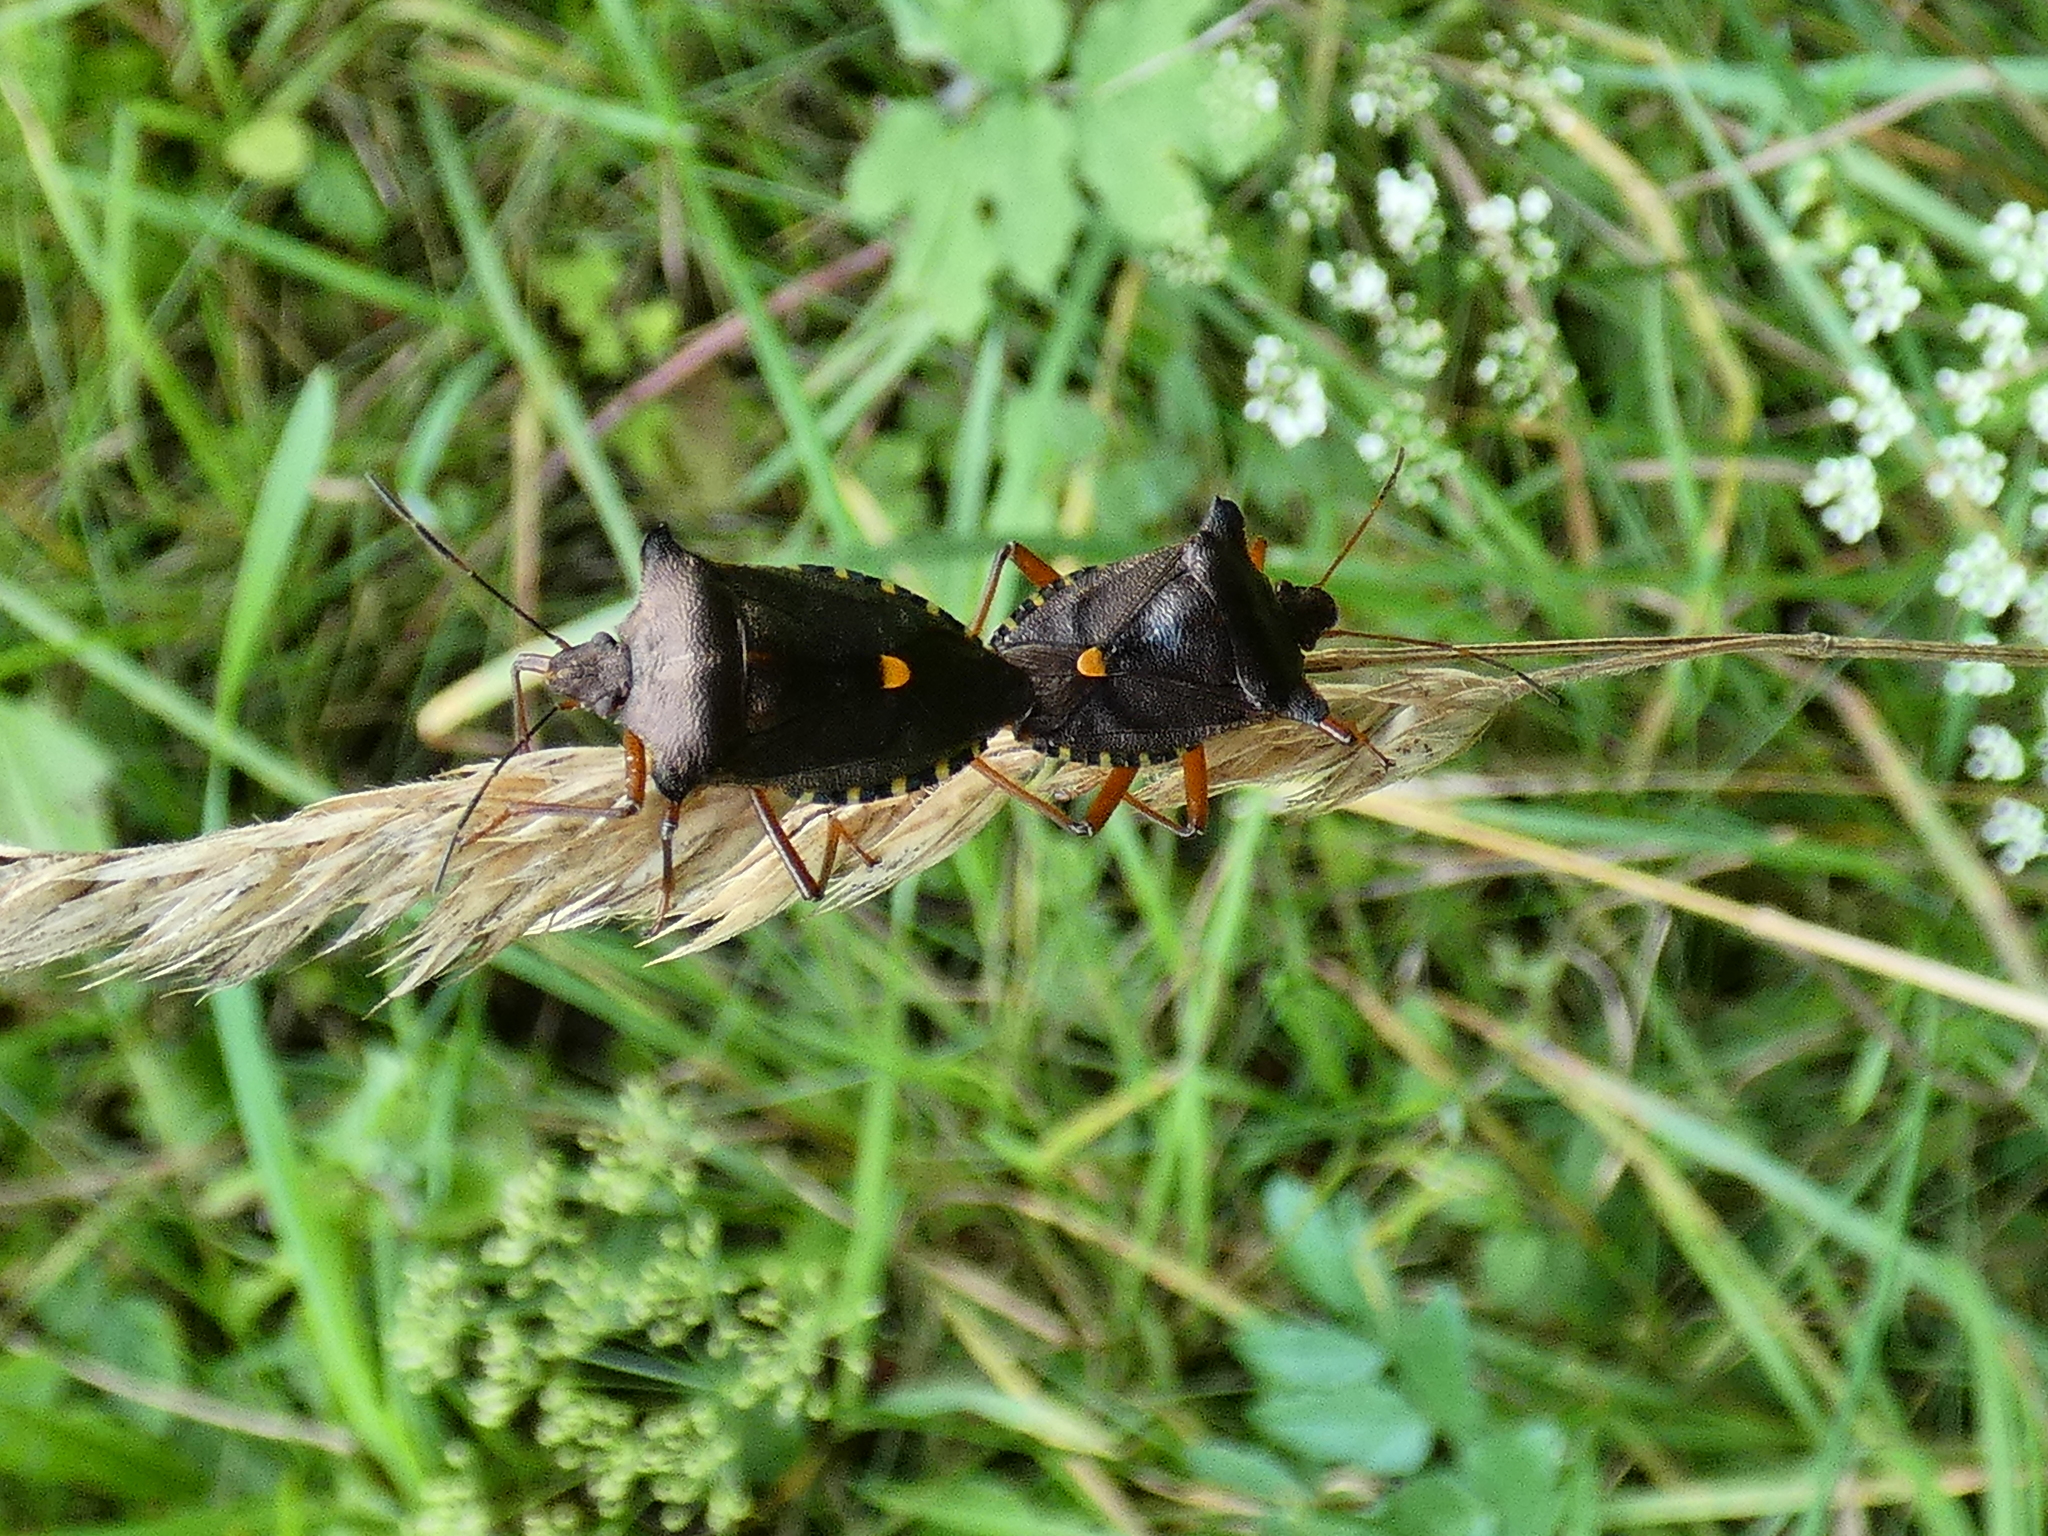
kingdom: Animalia
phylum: Arthropoda
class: Insecta
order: Hemiptera
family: Pentatomidae
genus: Pentatoma
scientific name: Pentatoma rufipes
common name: Forest bug
